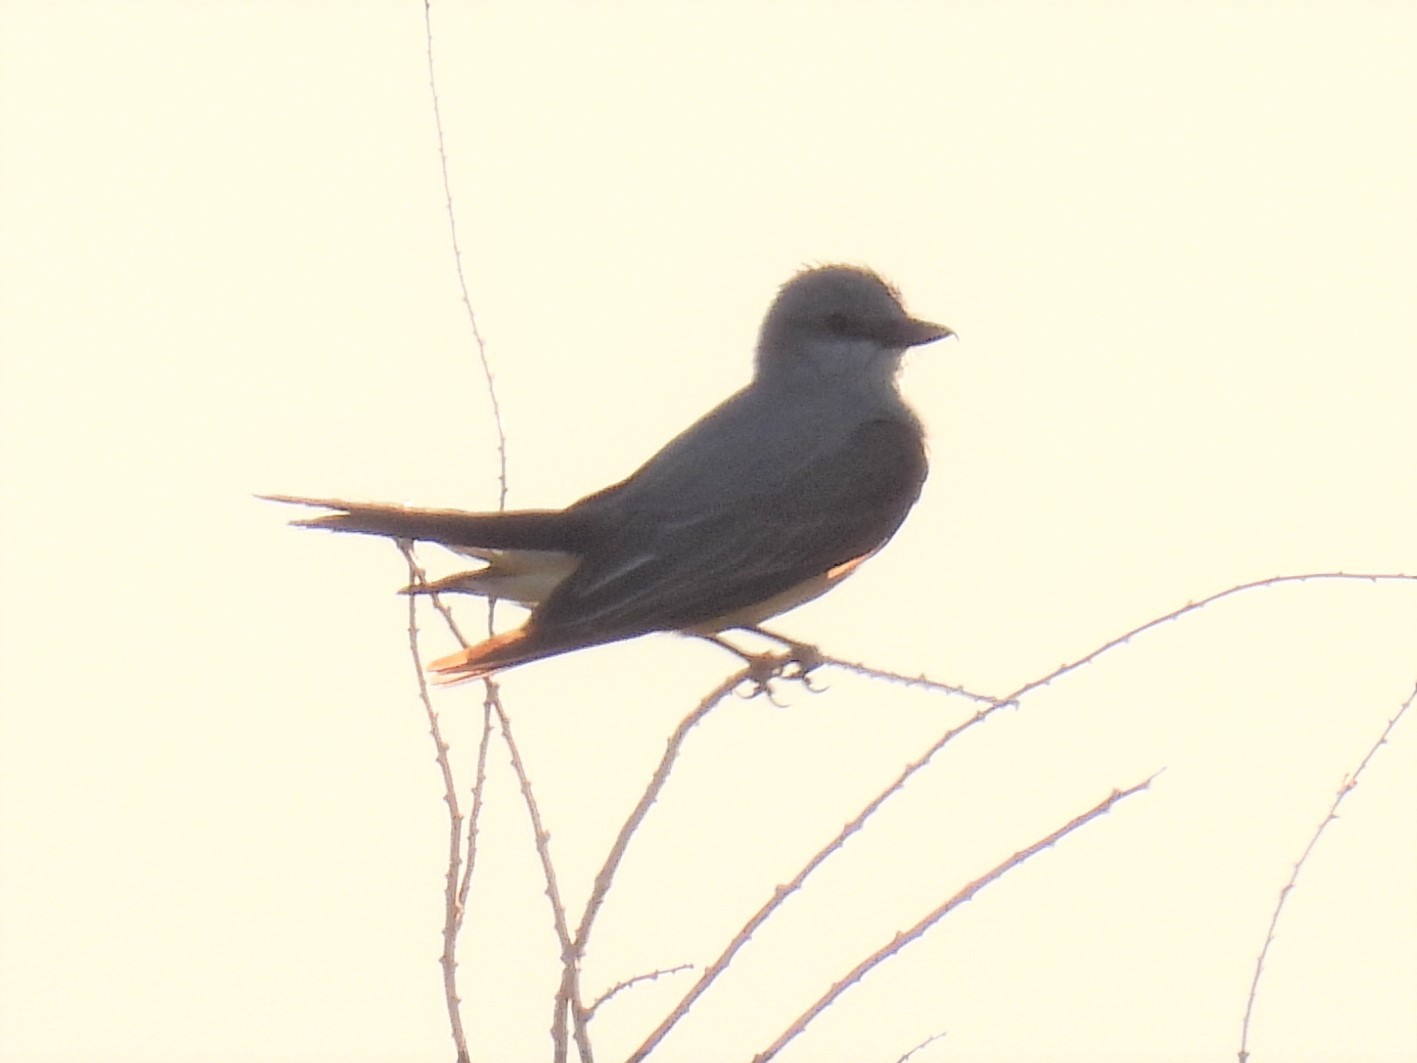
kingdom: Animalia
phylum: Chordata
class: Aves
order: Passeriformes
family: Tyrannidae
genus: Tyrannus
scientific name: Tyrannus verticalis
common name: Western kingbird
